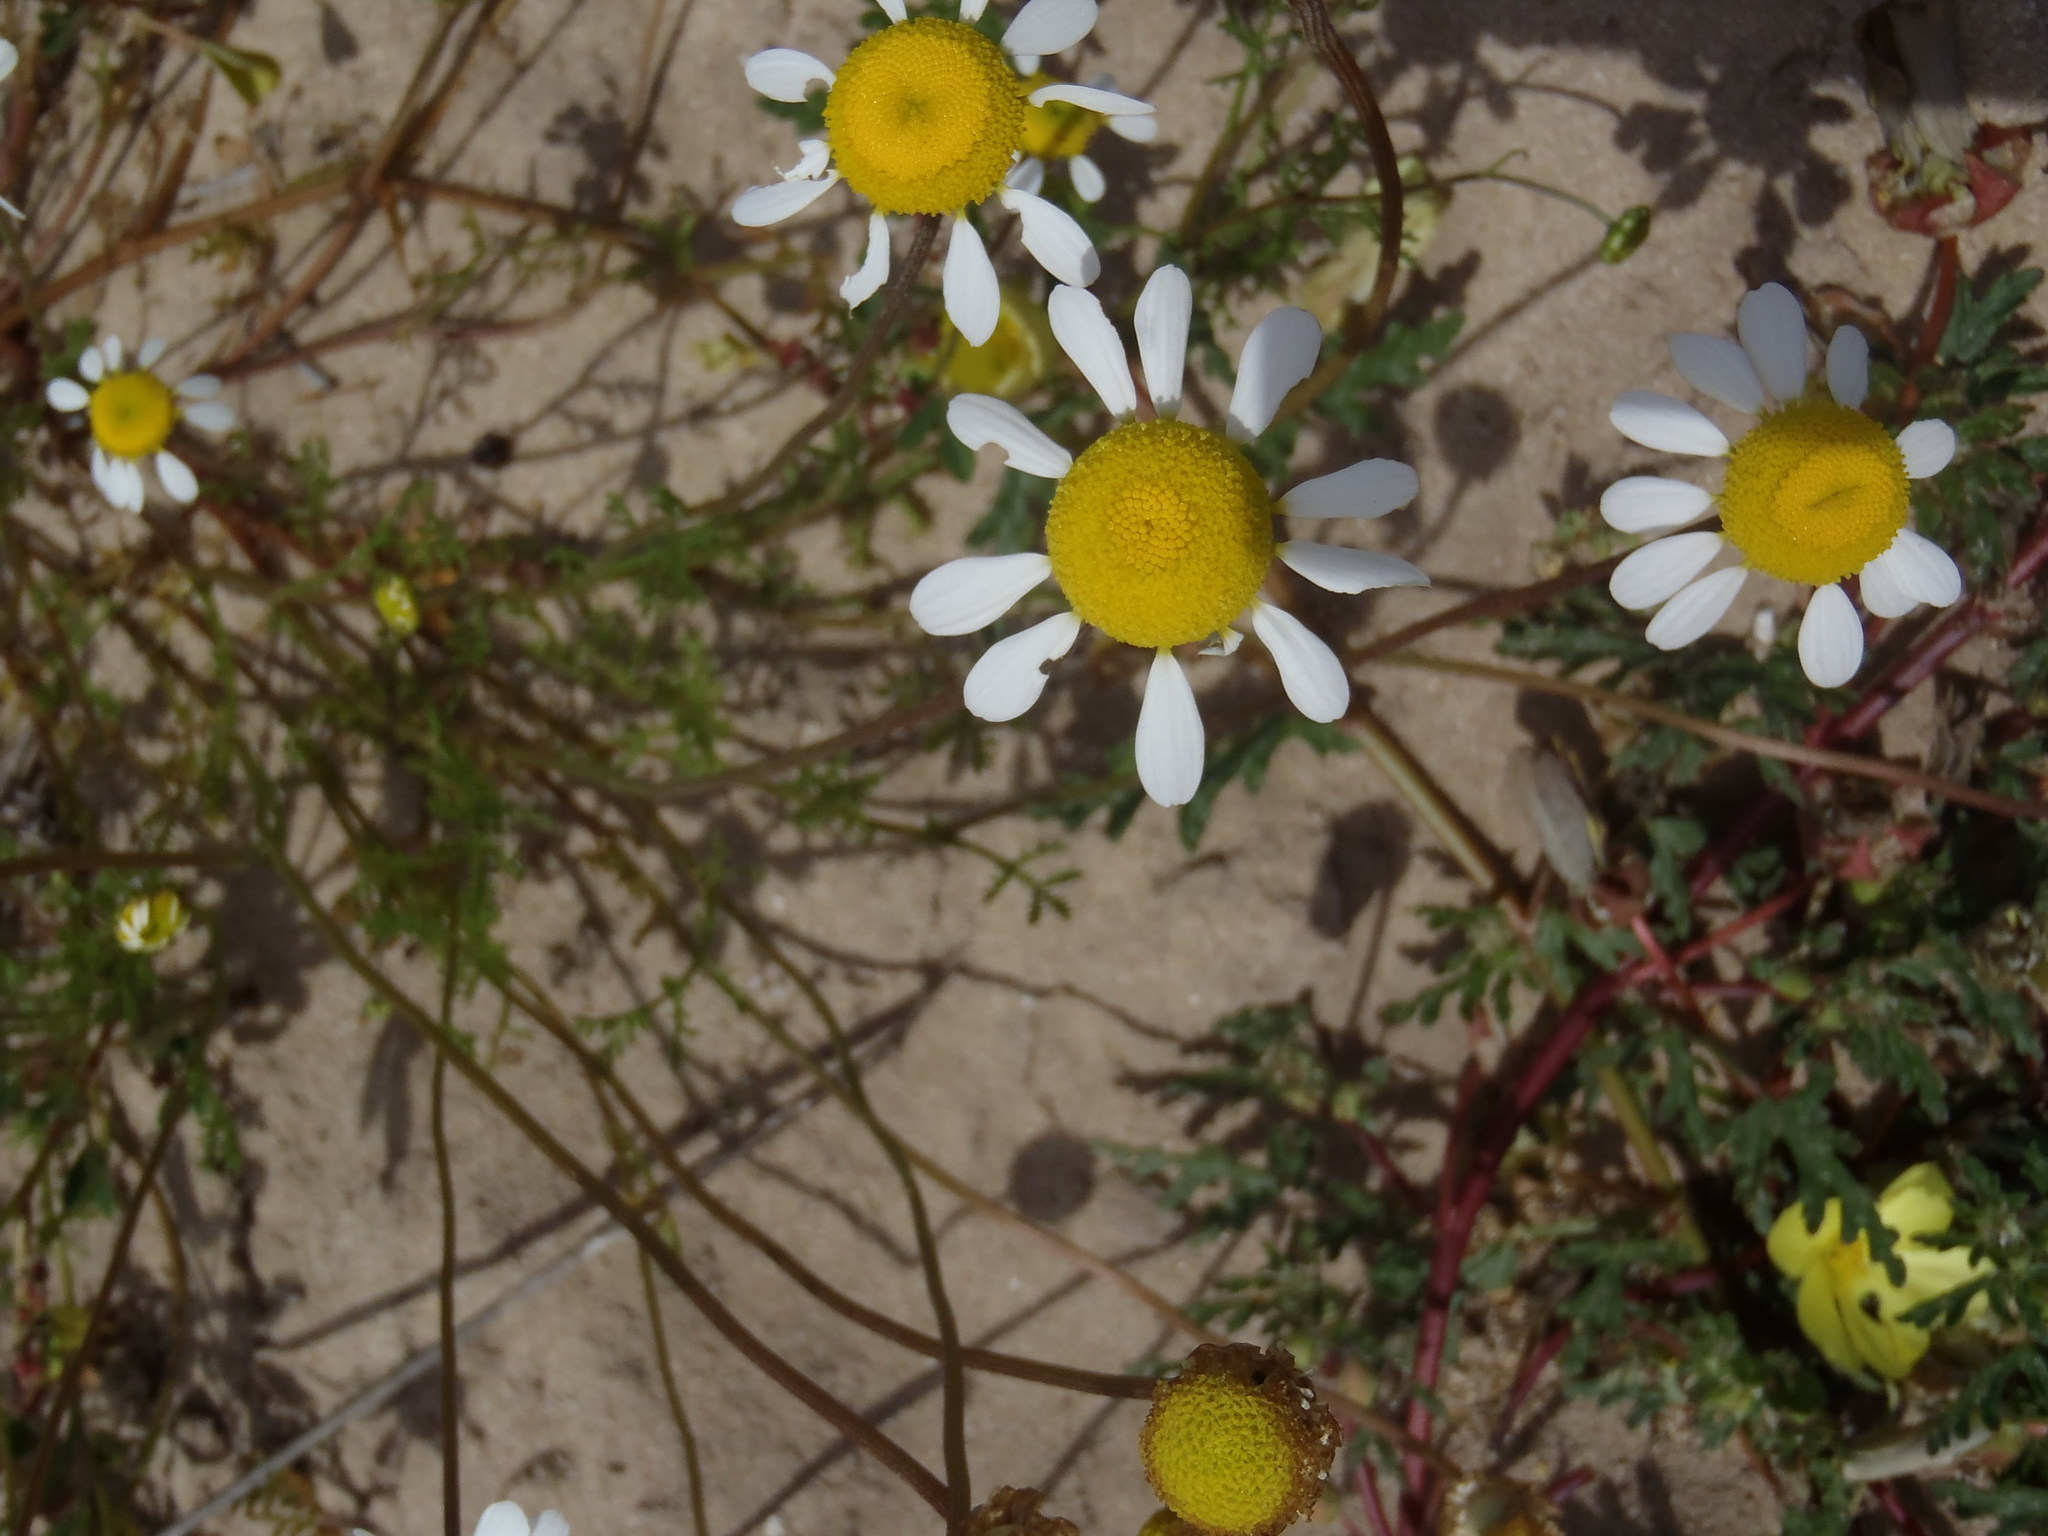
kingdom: Plantae
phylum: Tracheophyta
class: Magnoliopsida
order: Asterales
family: Asteraceae
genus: Foveolina
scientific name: Foveolina tenella
